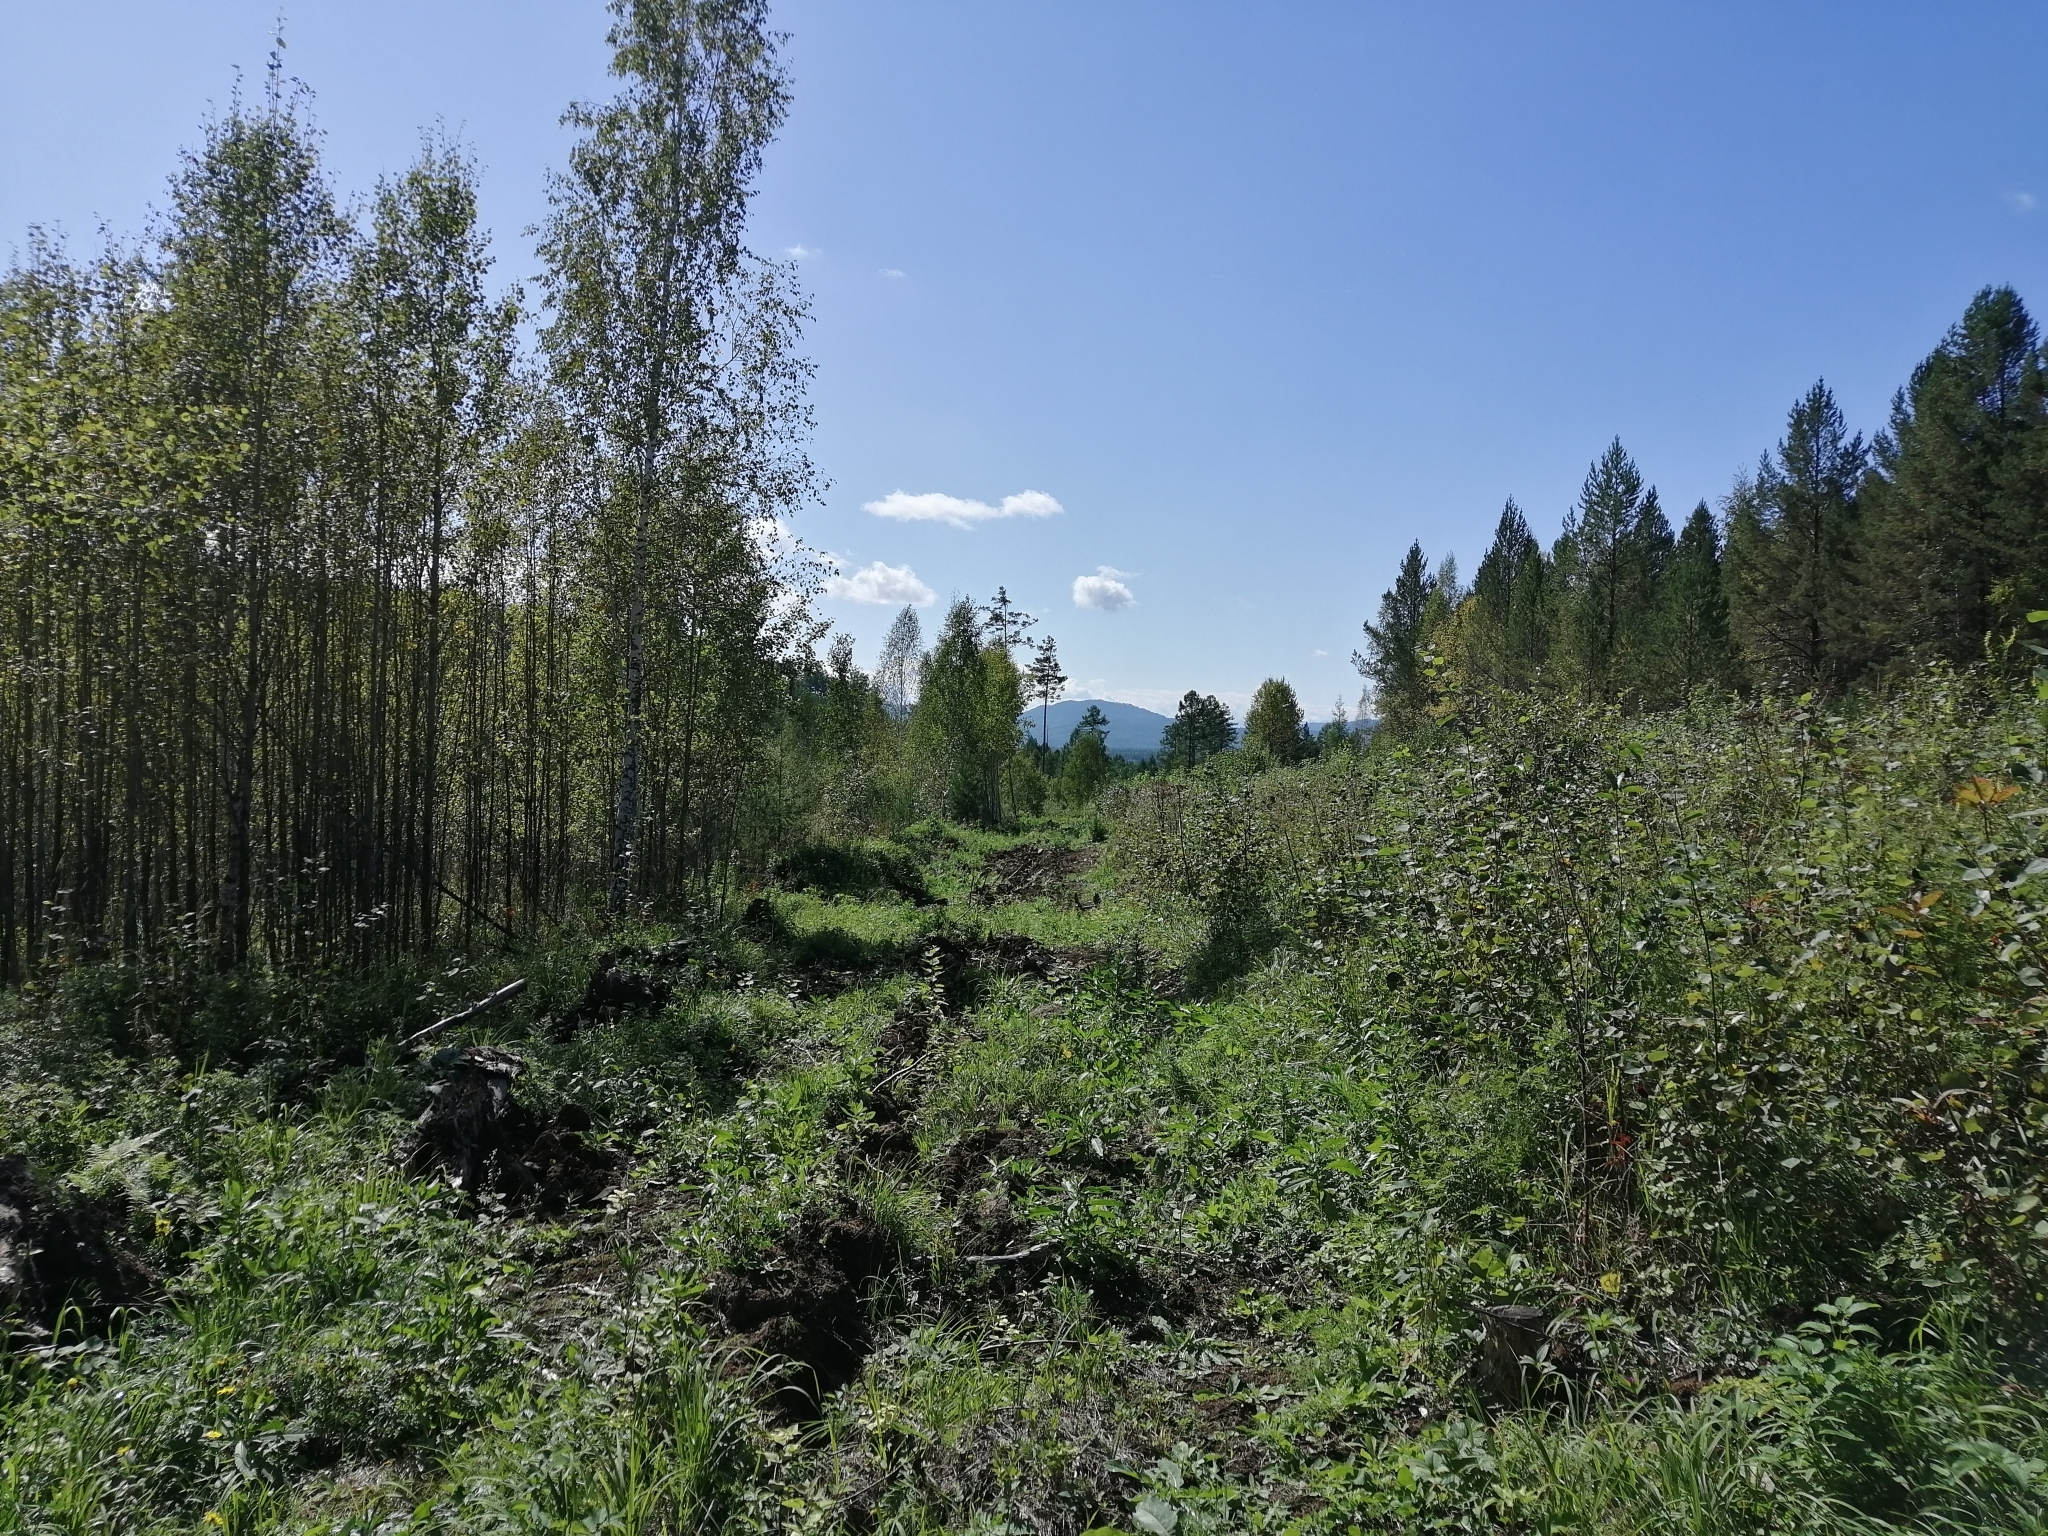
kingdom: Plantae
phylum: Tracheophyta
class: Pinopsida
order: Pinales
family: Pinaceae
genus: Pinus
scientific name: Pinus sylvestris
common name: Scots pine
